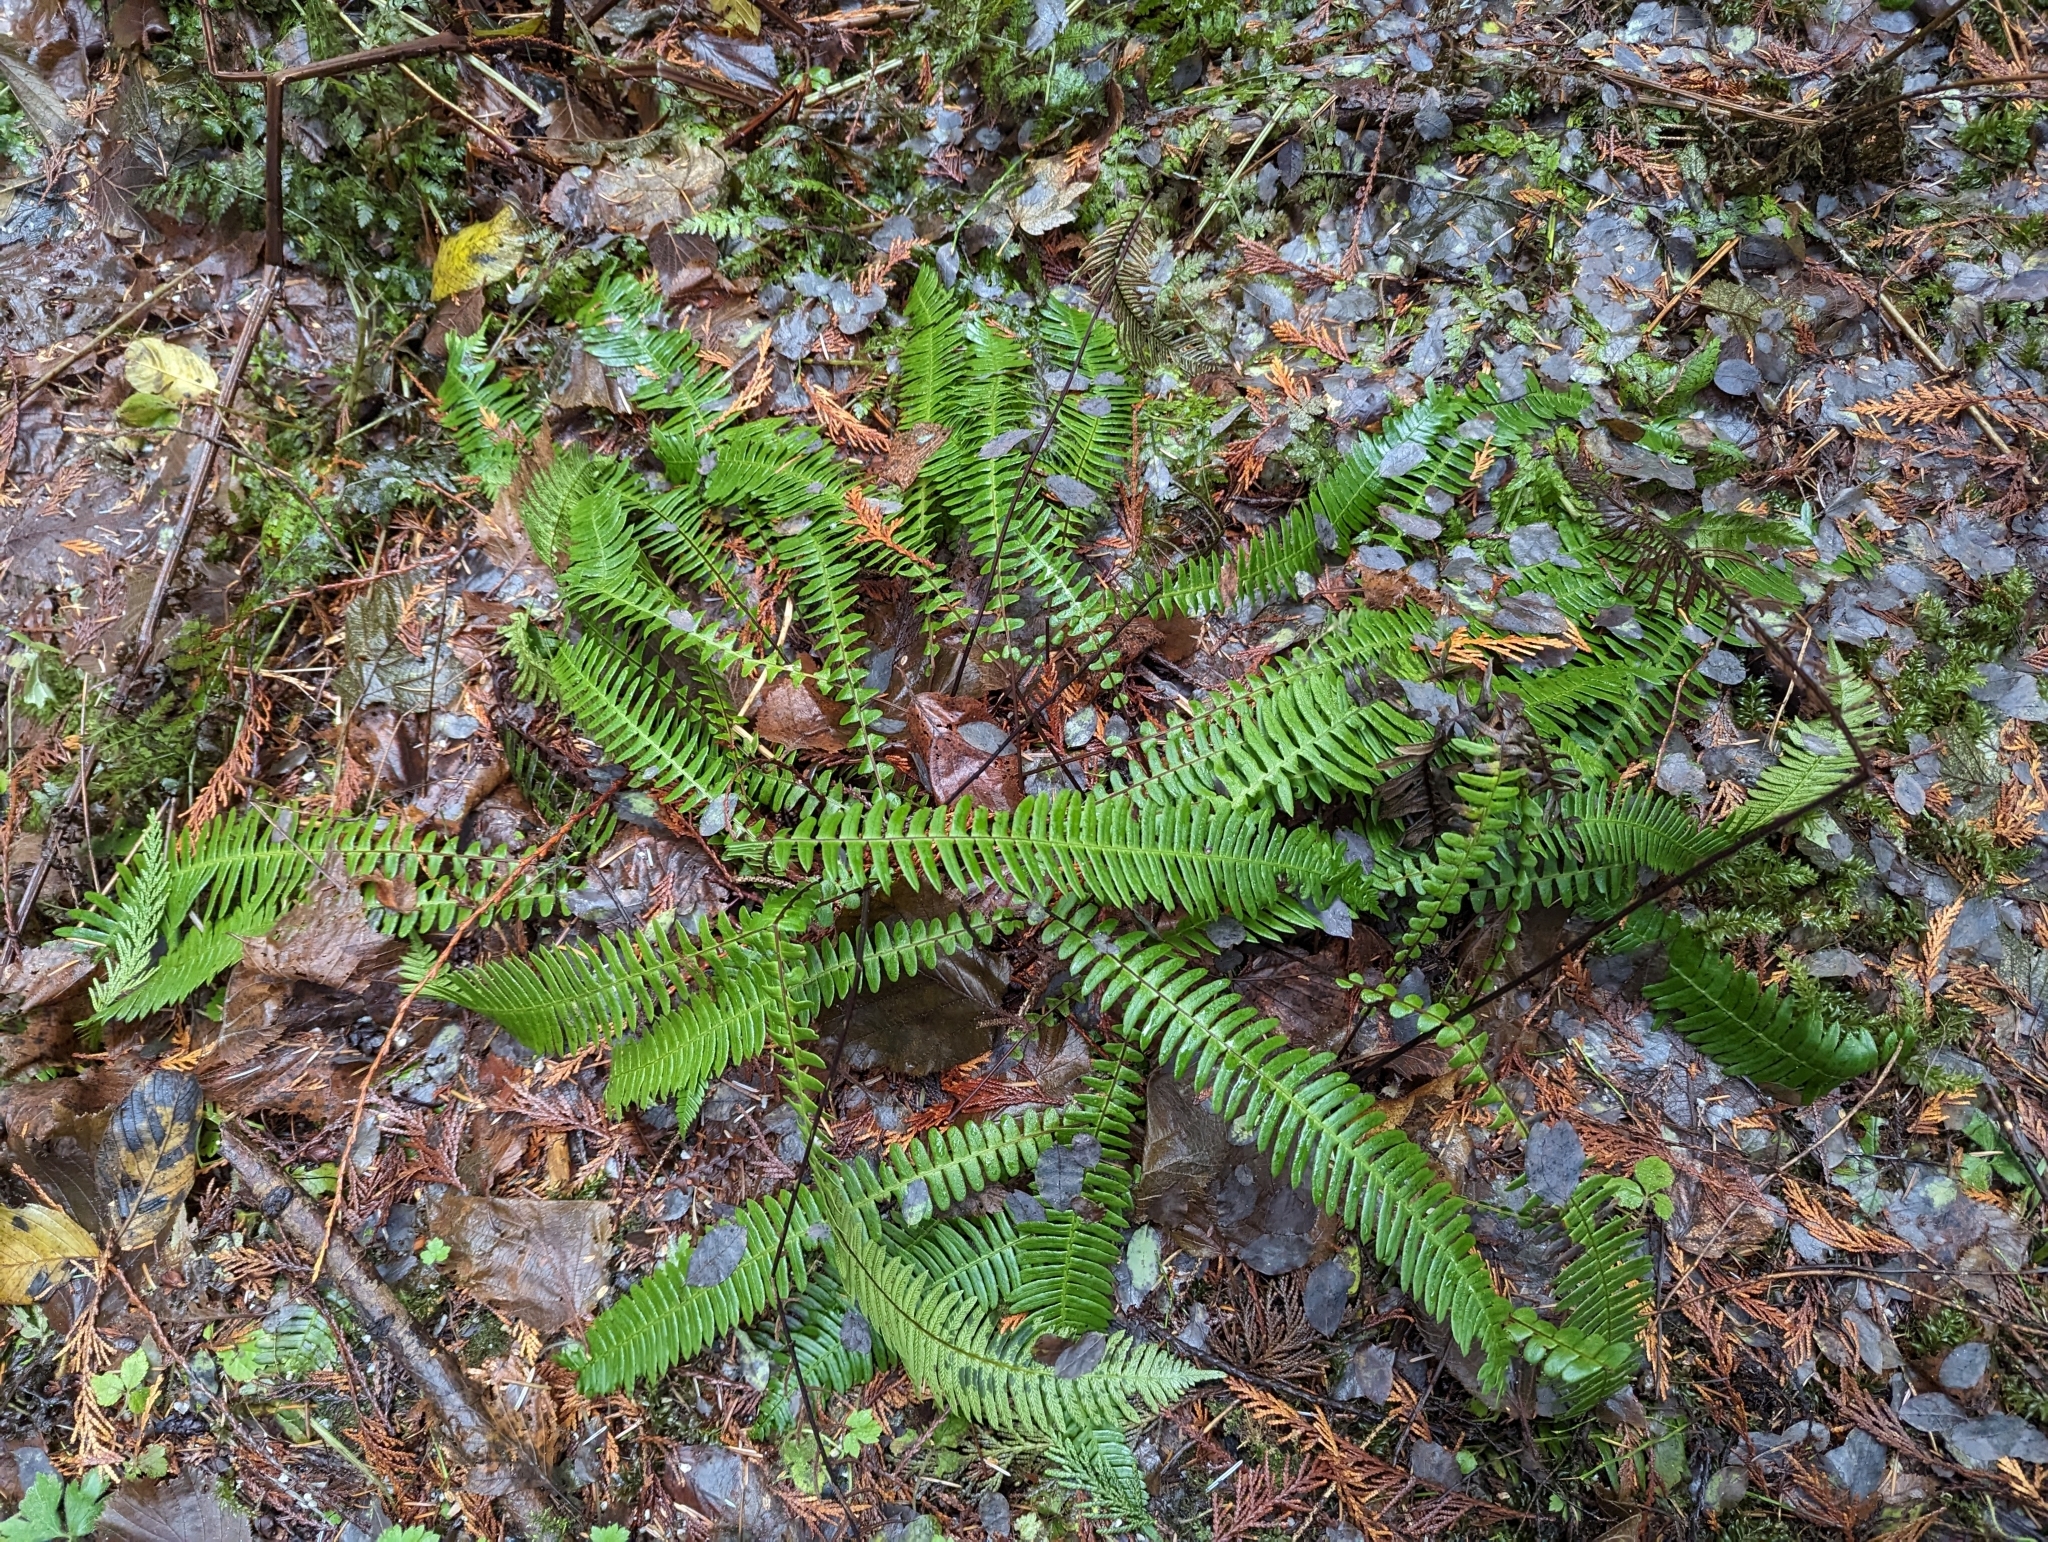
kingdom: Plantae
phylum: Tracheophyta
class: Polypodiopsida
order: Polypodiales
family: Blechnaceae
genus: Struthiopteris
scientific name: Struthiopteris spicant
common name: Deer fern
